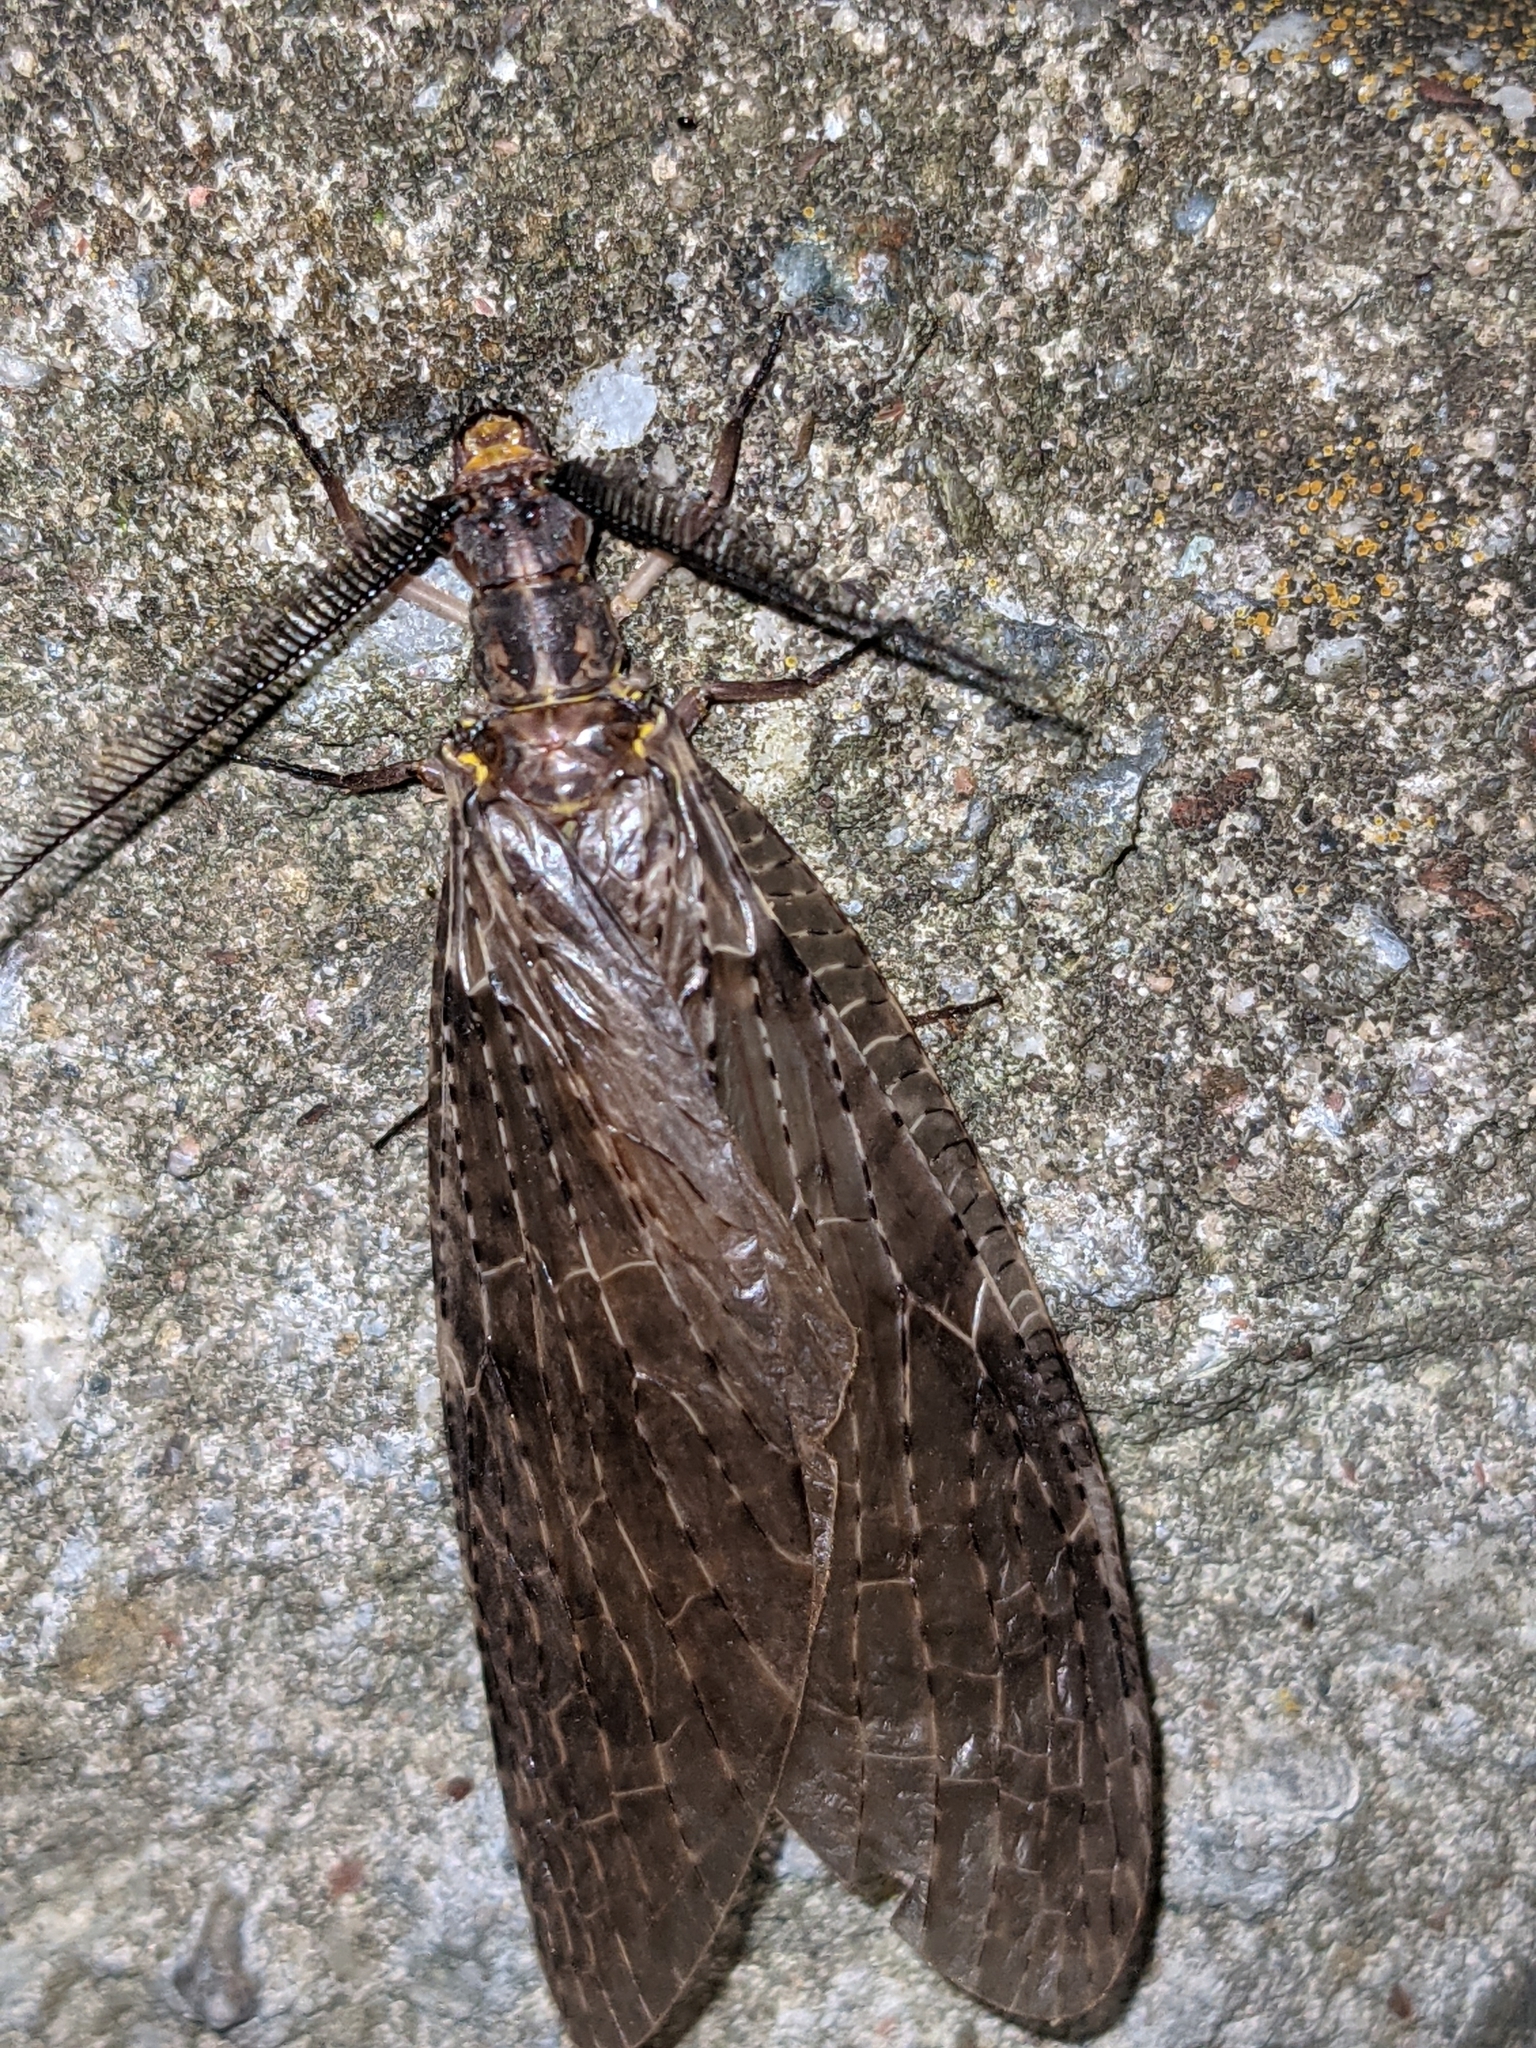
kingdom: Animalia
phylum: Arthropoda
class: Insecta
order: Megaloptera
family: Corydalidae
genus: Chauliodes
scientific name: Chauliodes pectinicornis
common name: Summer fishfly
